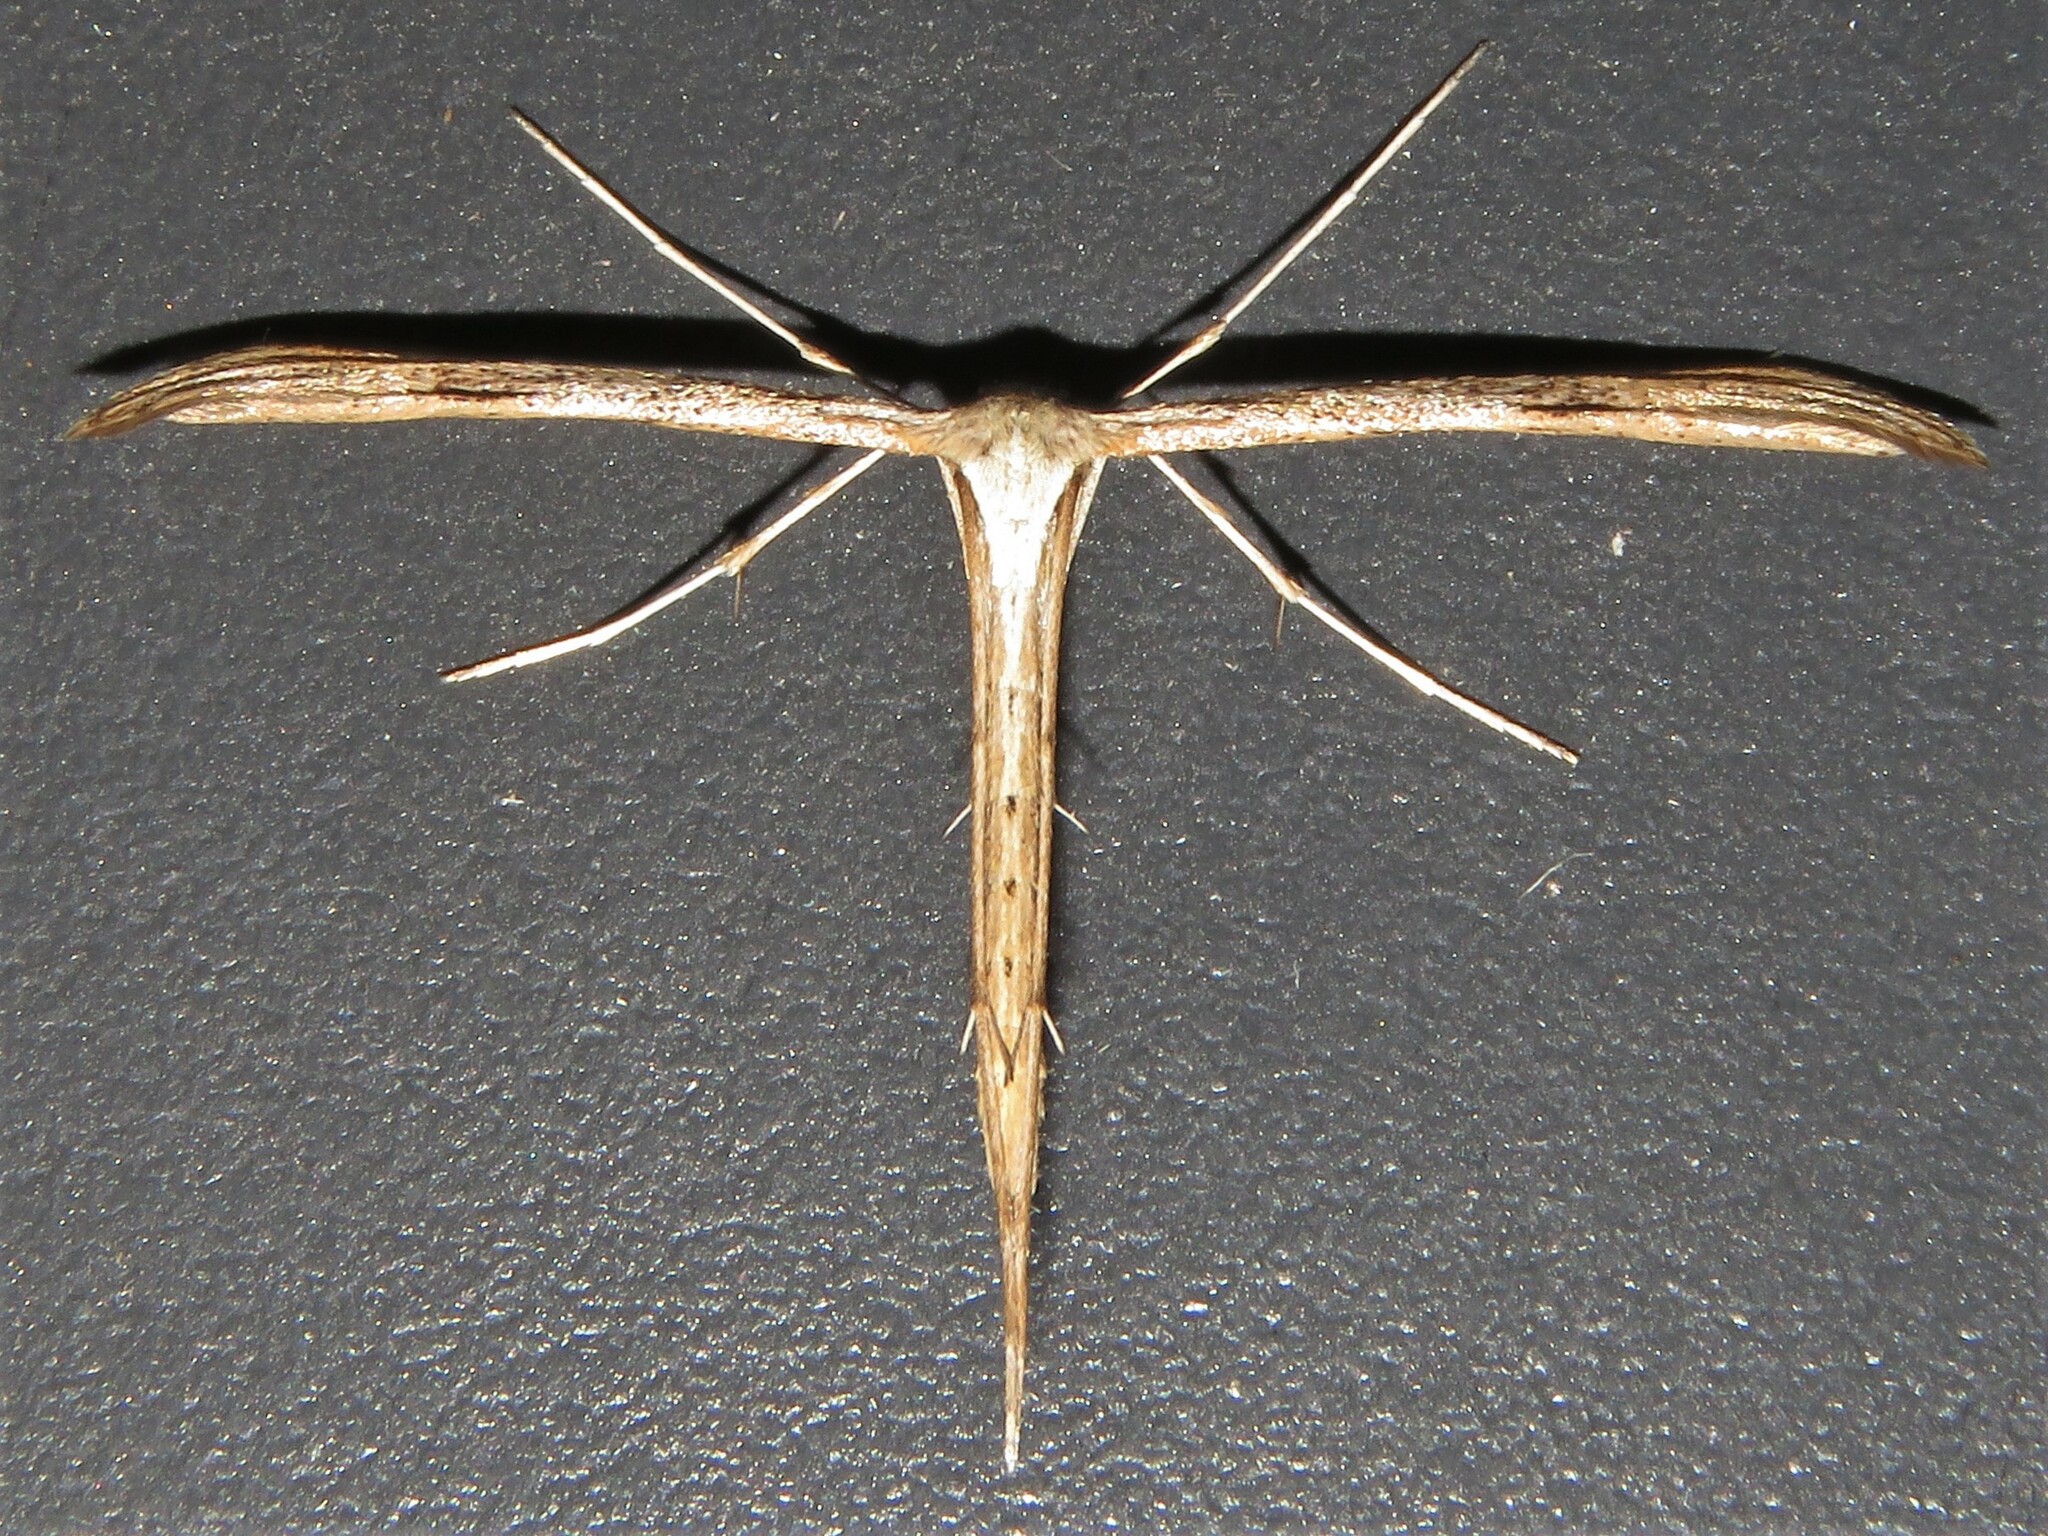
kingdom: Animalia
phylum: Arthropoda
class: Insecta
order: Lepidoptera
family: Pterophoridae
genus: Emmelina
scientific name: Emmelina monodactyla
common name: Common plume
